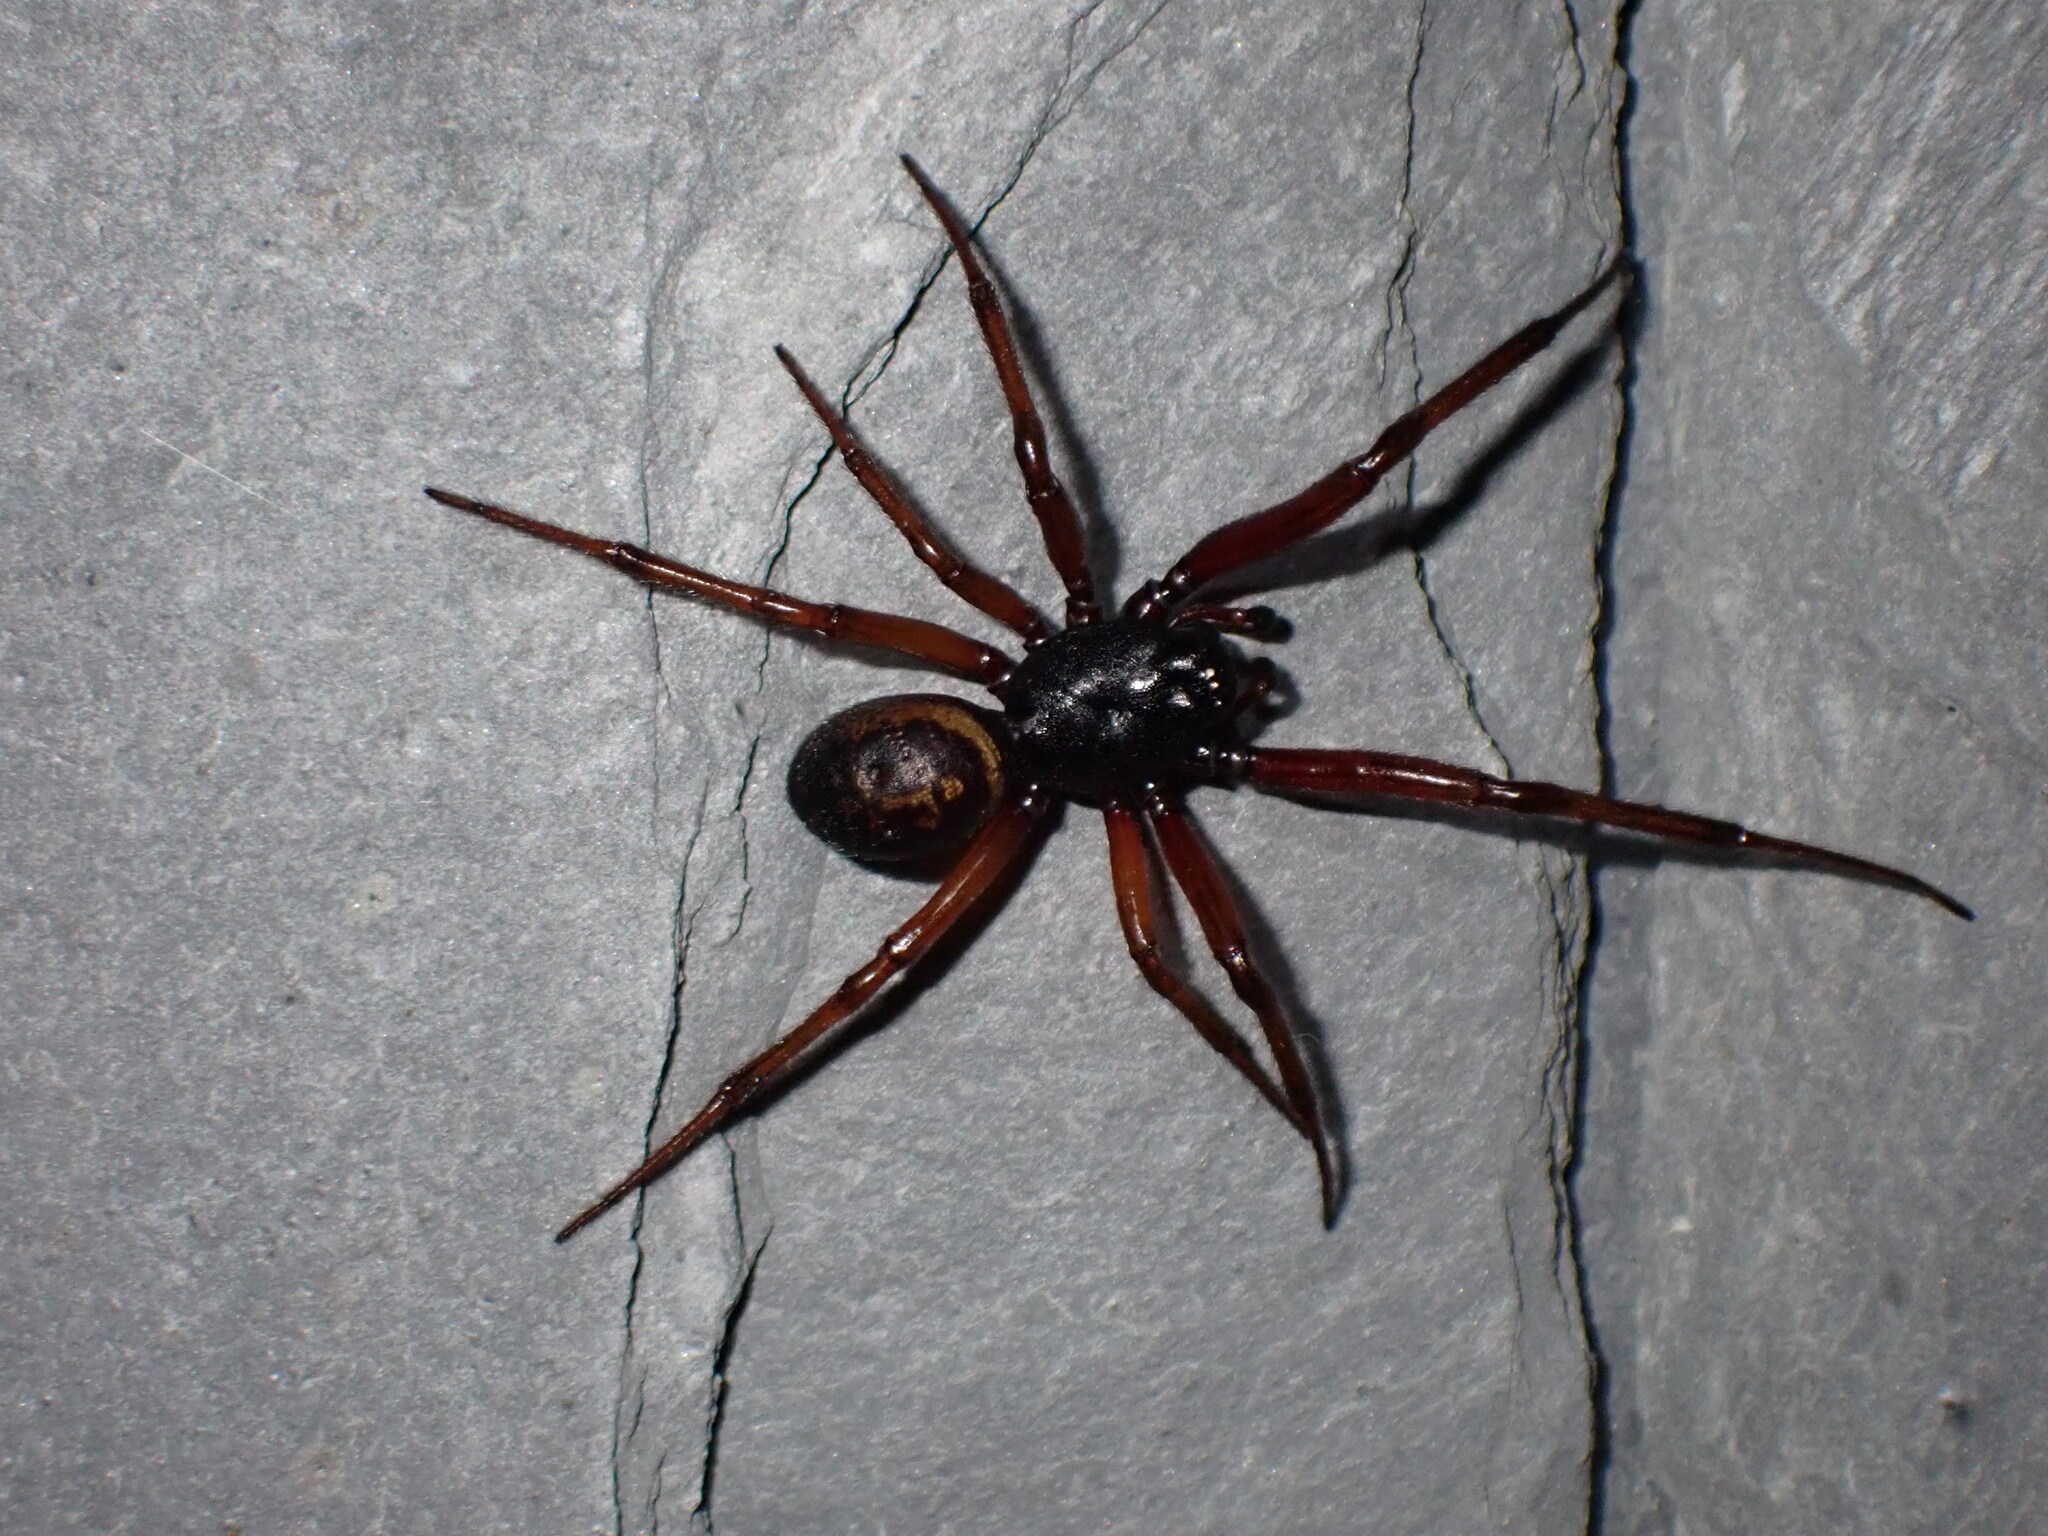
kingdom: Animalia
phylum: Arthropoda
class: Arachnida
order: Araneae
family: Theridiidae
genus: Steatoda
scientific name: Steatoda nobilis
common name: Cobweb weaver
